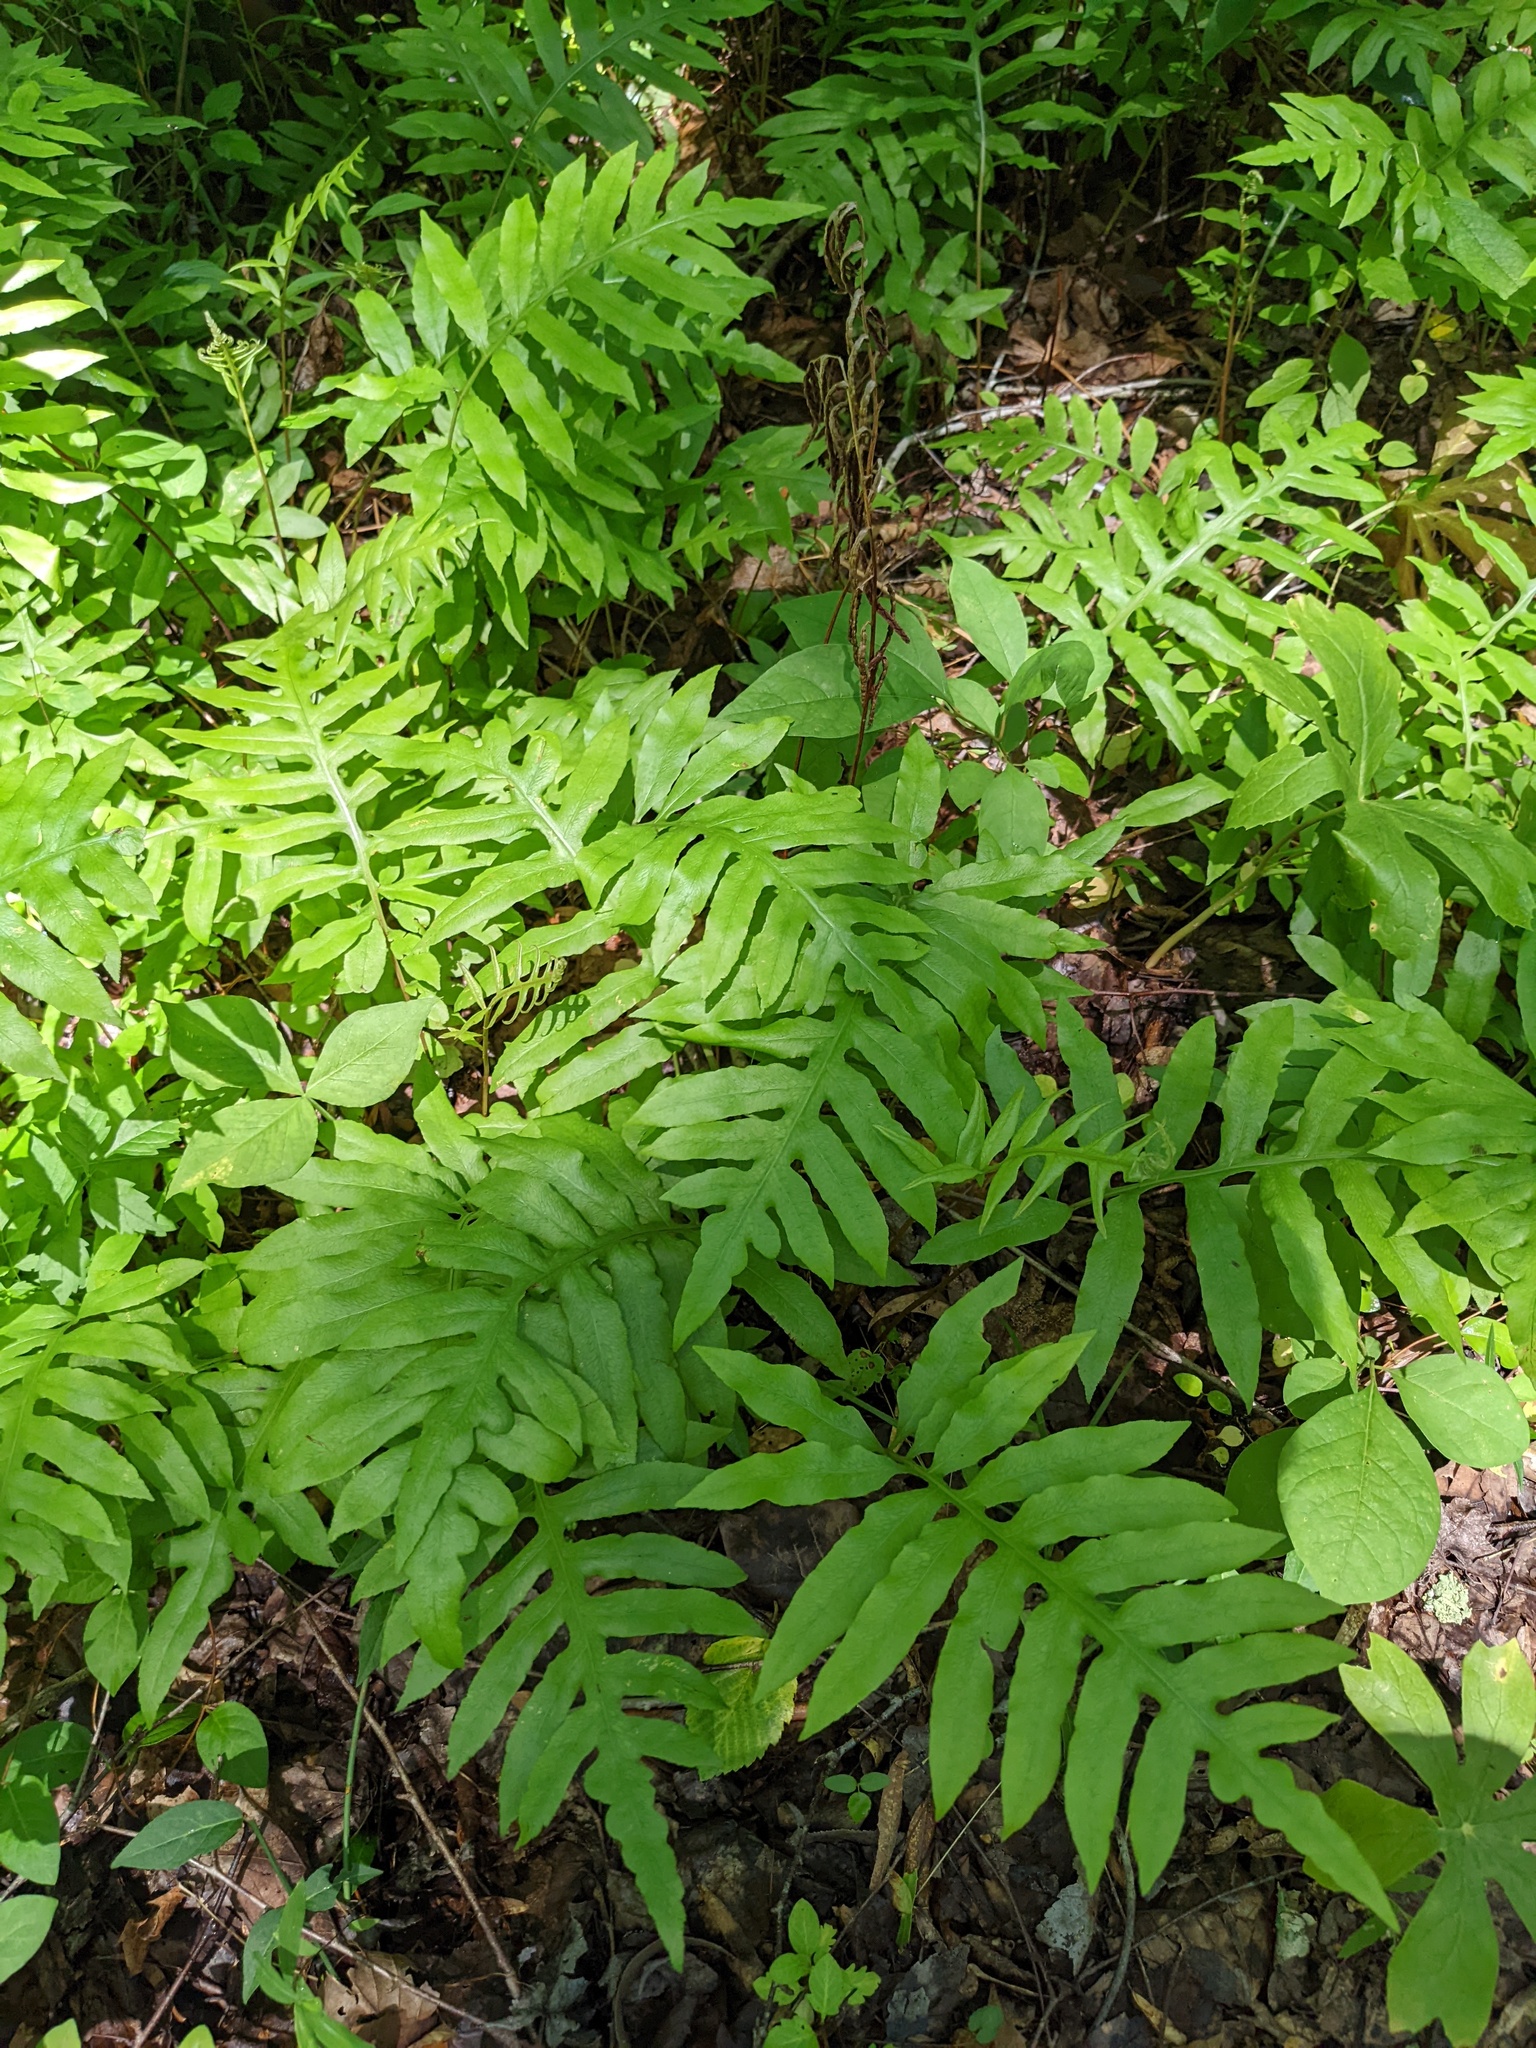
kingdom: Plantae
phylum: Tracheophyta
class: Polypodiopsida
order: Polypodiales
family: Onocleaceae
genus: Onoclea
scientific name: Onoclea sensibilis
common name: Sensitive fern
